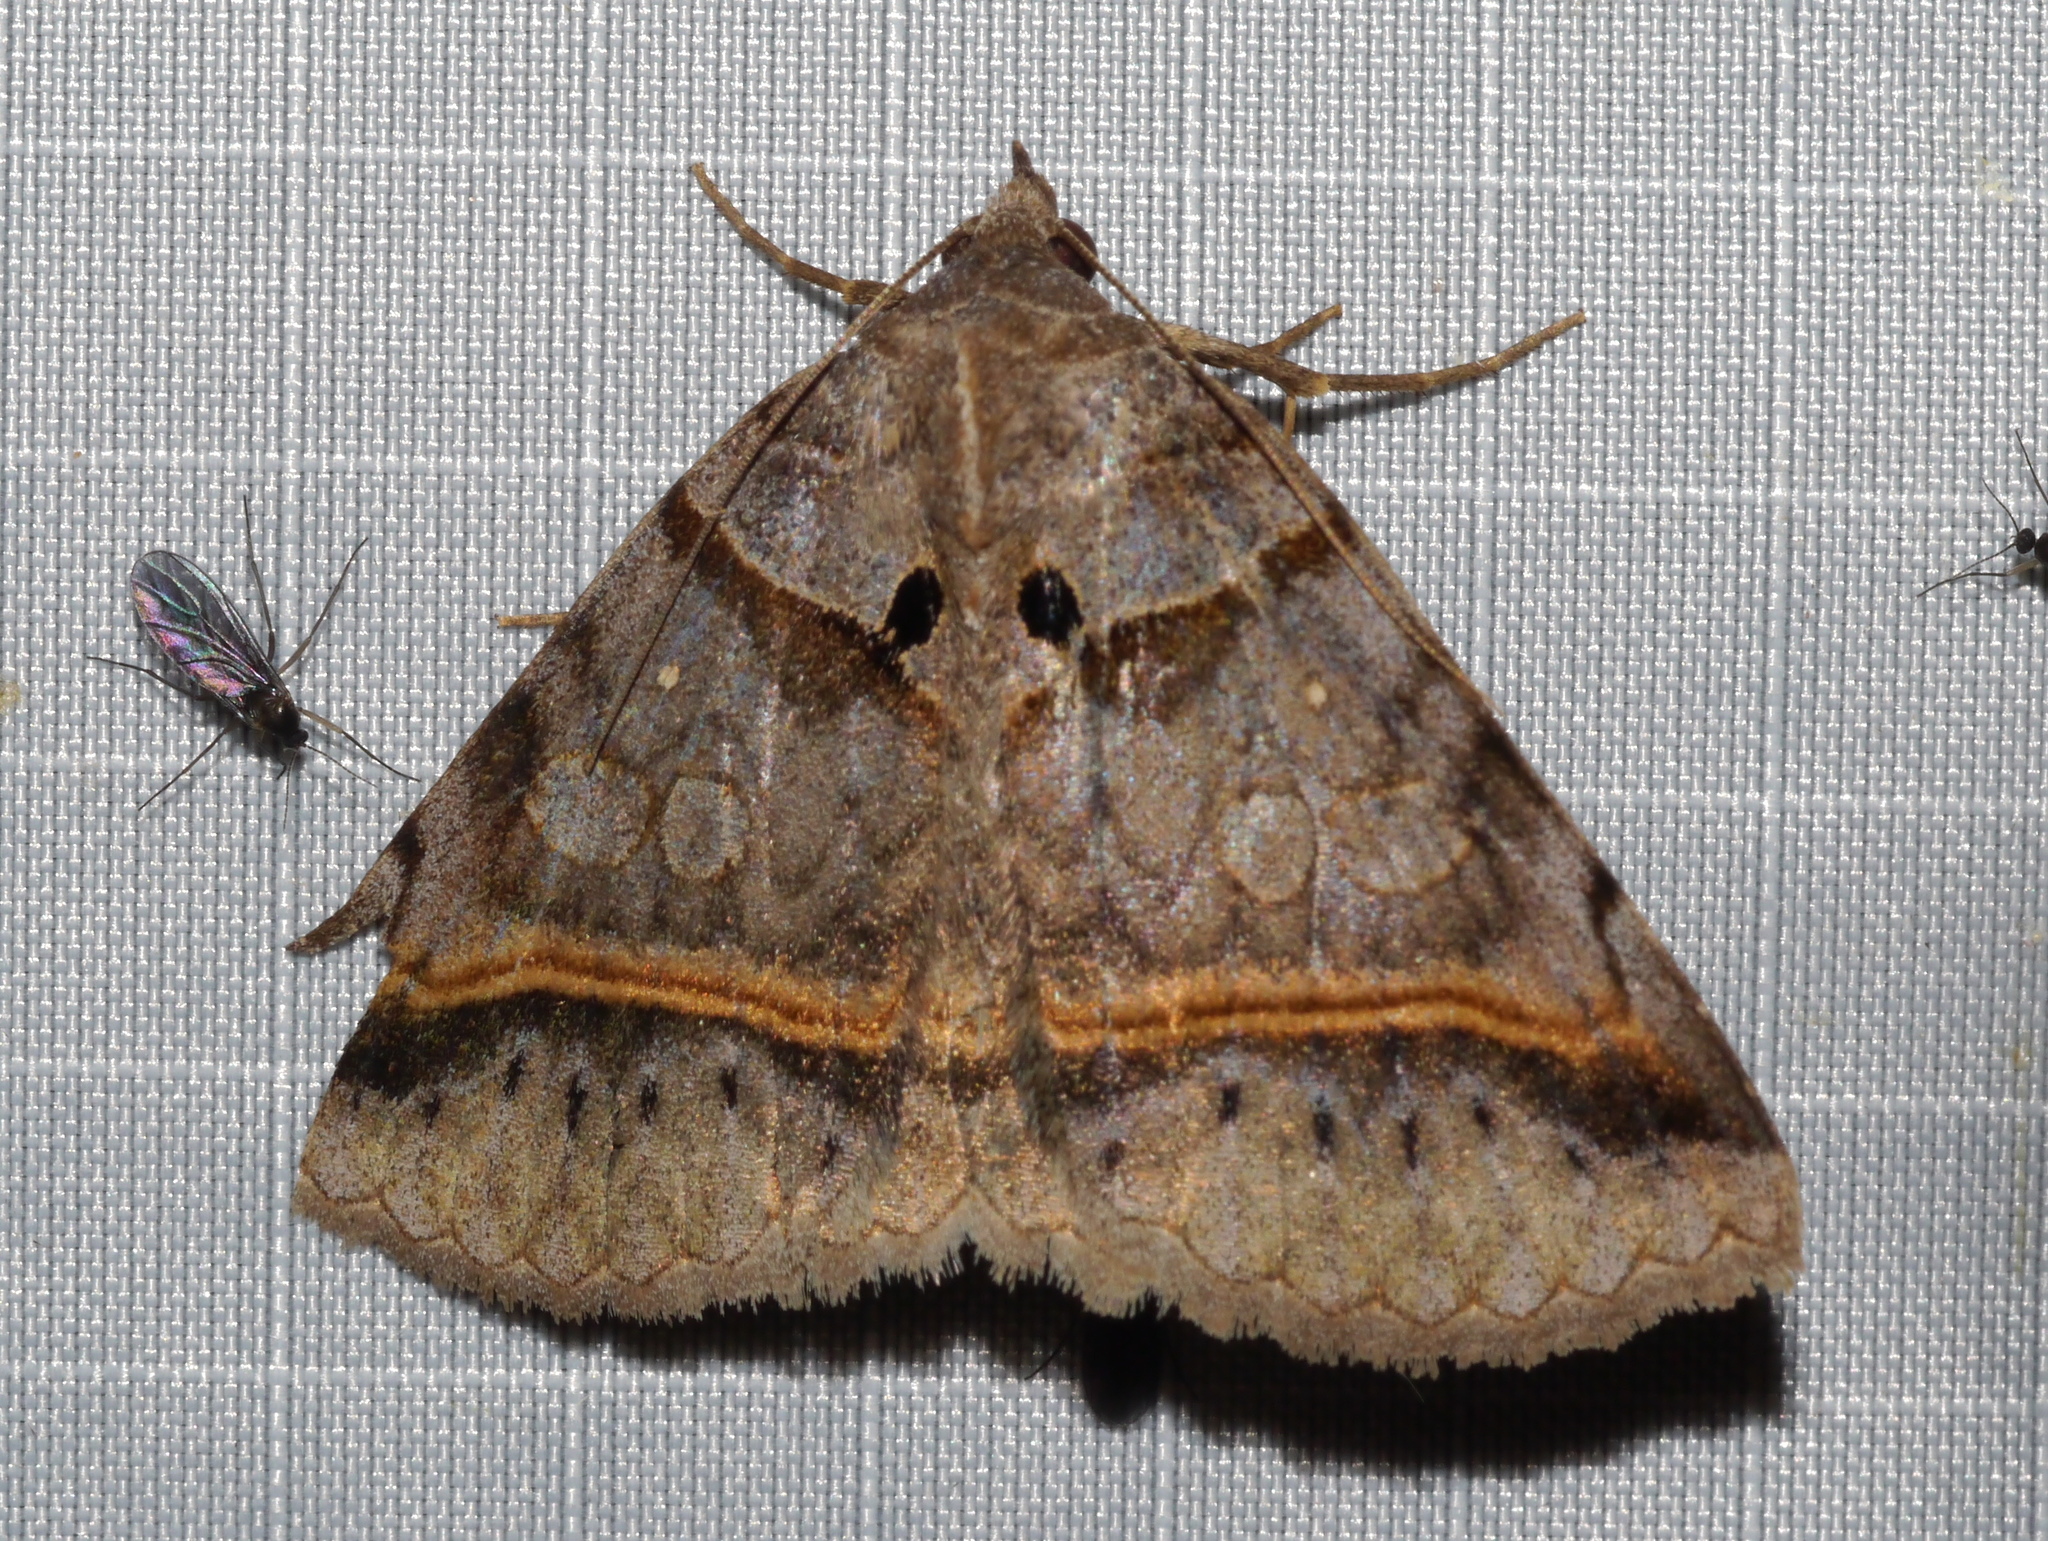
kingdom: Animalia
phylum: Arthropoda
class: Insecta
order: Lepidoptera
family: Erebidae
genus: Celiptera
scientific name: Celiptera valina
